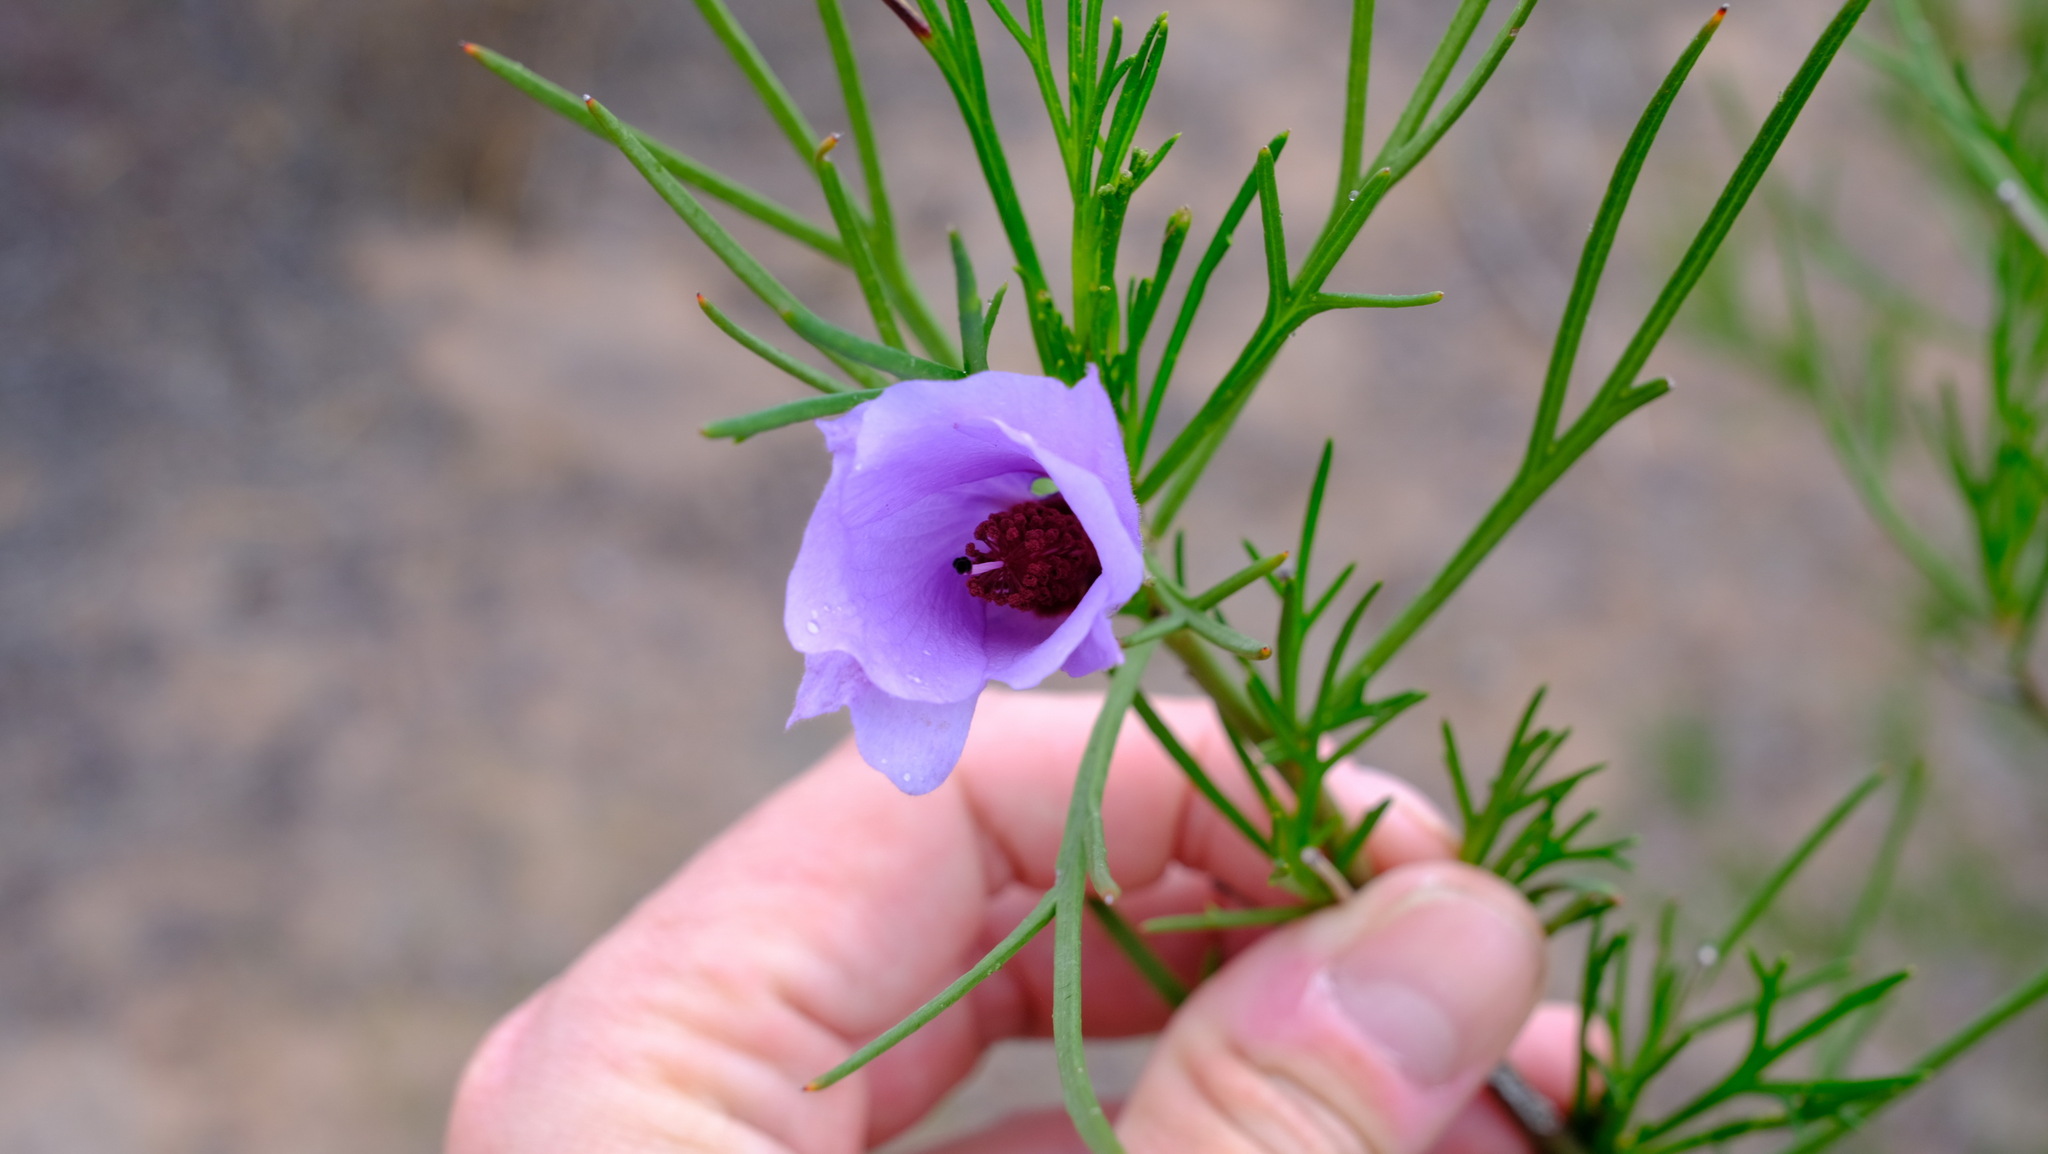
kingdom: Plantae
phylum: Tracheophyta
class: Magnoliopsida
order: Malvales
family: Malvaceae
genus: Hibiscus
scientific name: Hibiscus hakeifolius
